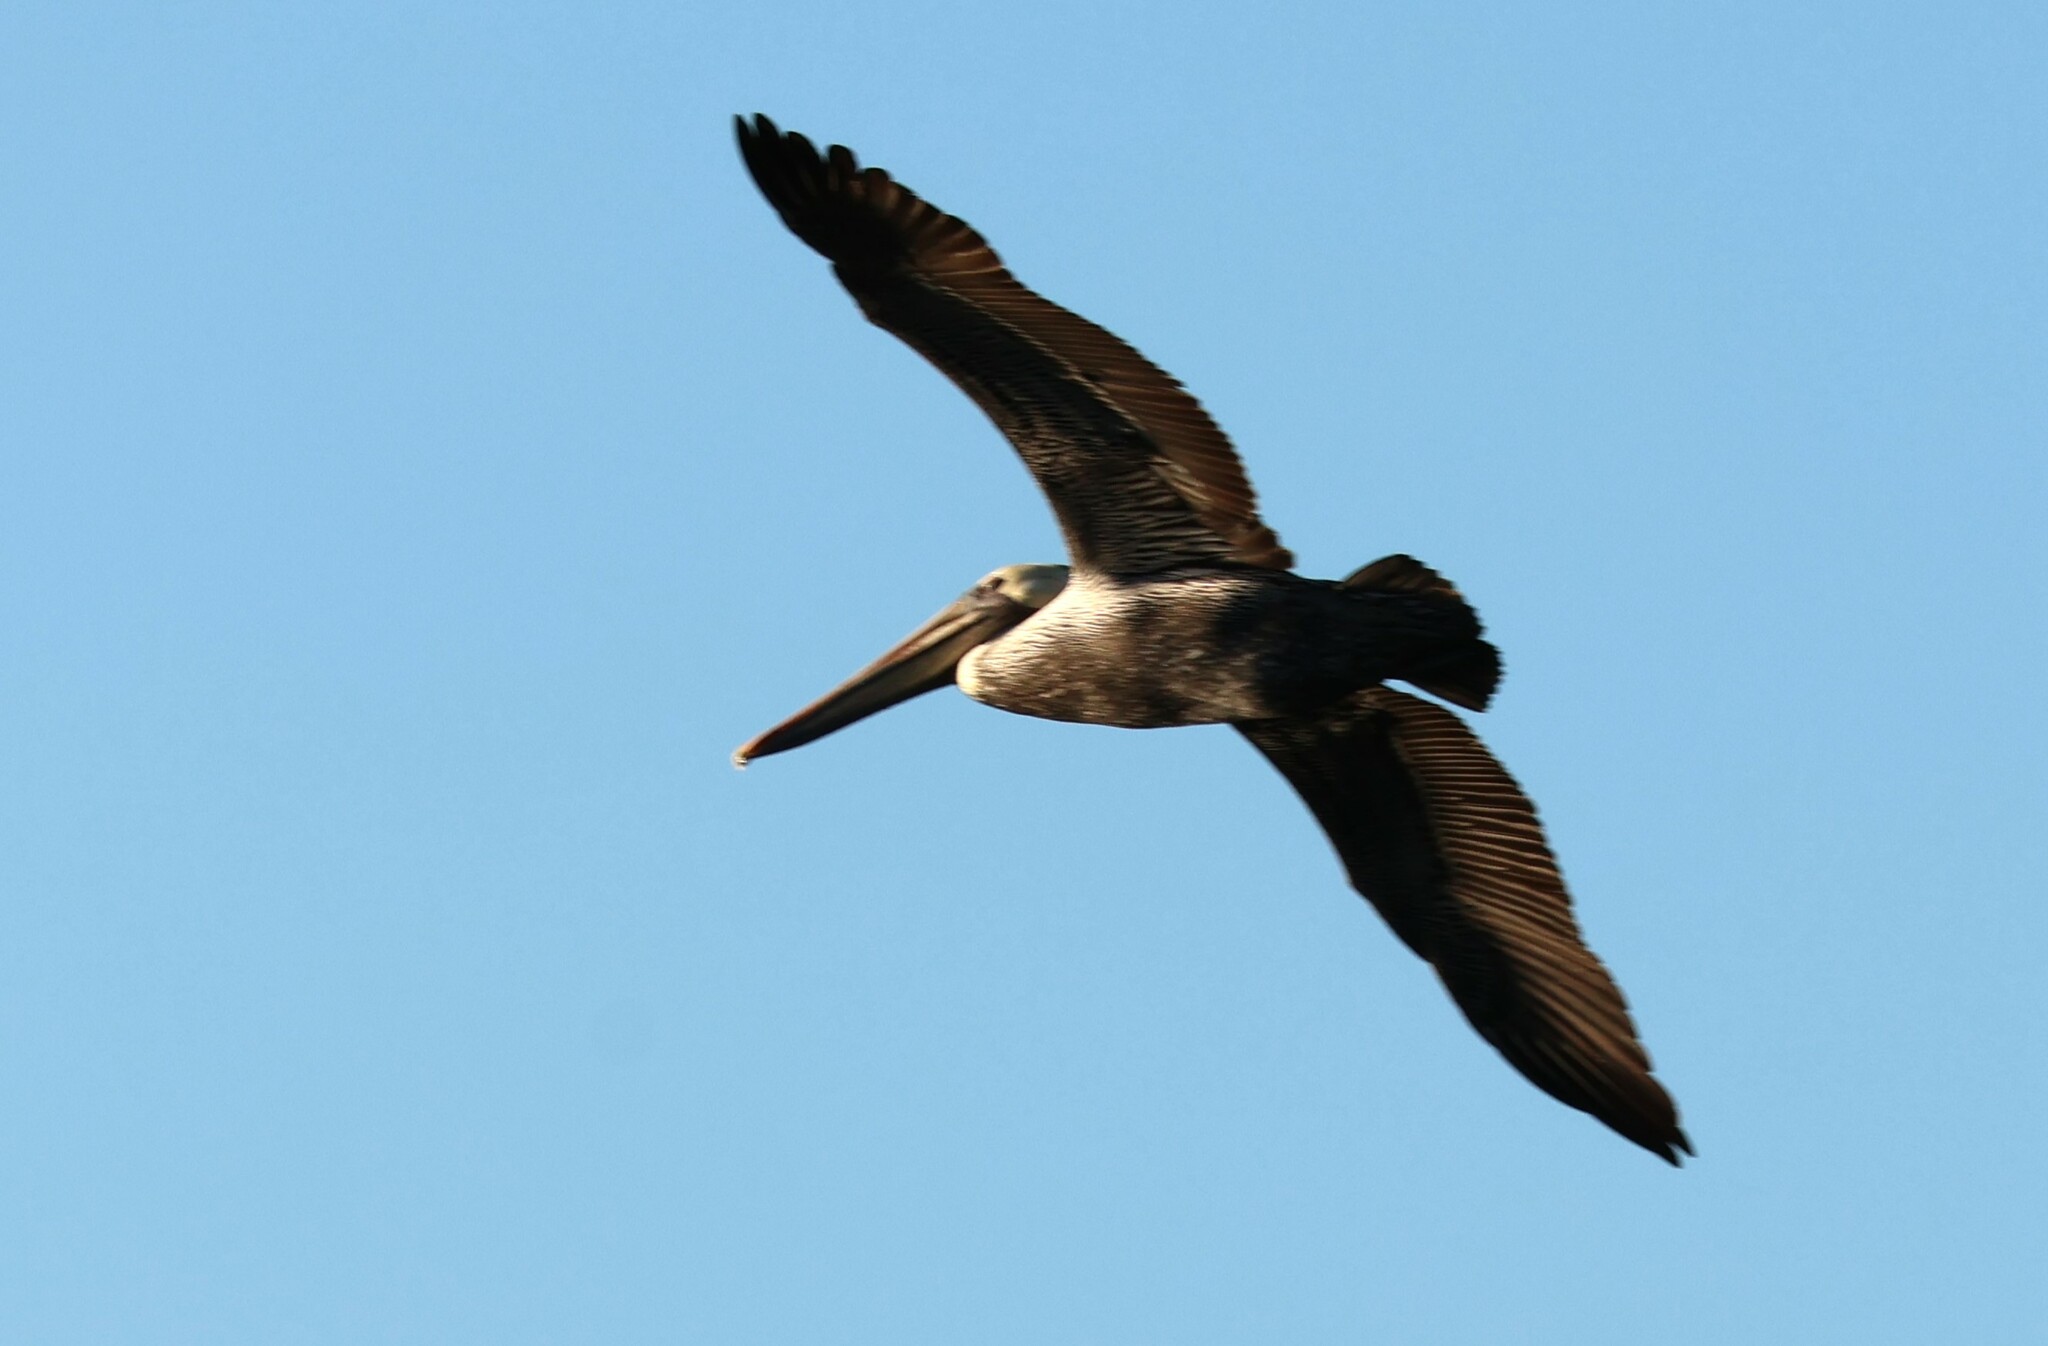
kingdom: Animalia
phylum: Chordata
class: Aves
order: Pelecaniformes
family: Pelecanidae
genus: Pelecanus
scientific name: Pelecanus occidentalis
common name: Brown pelican
